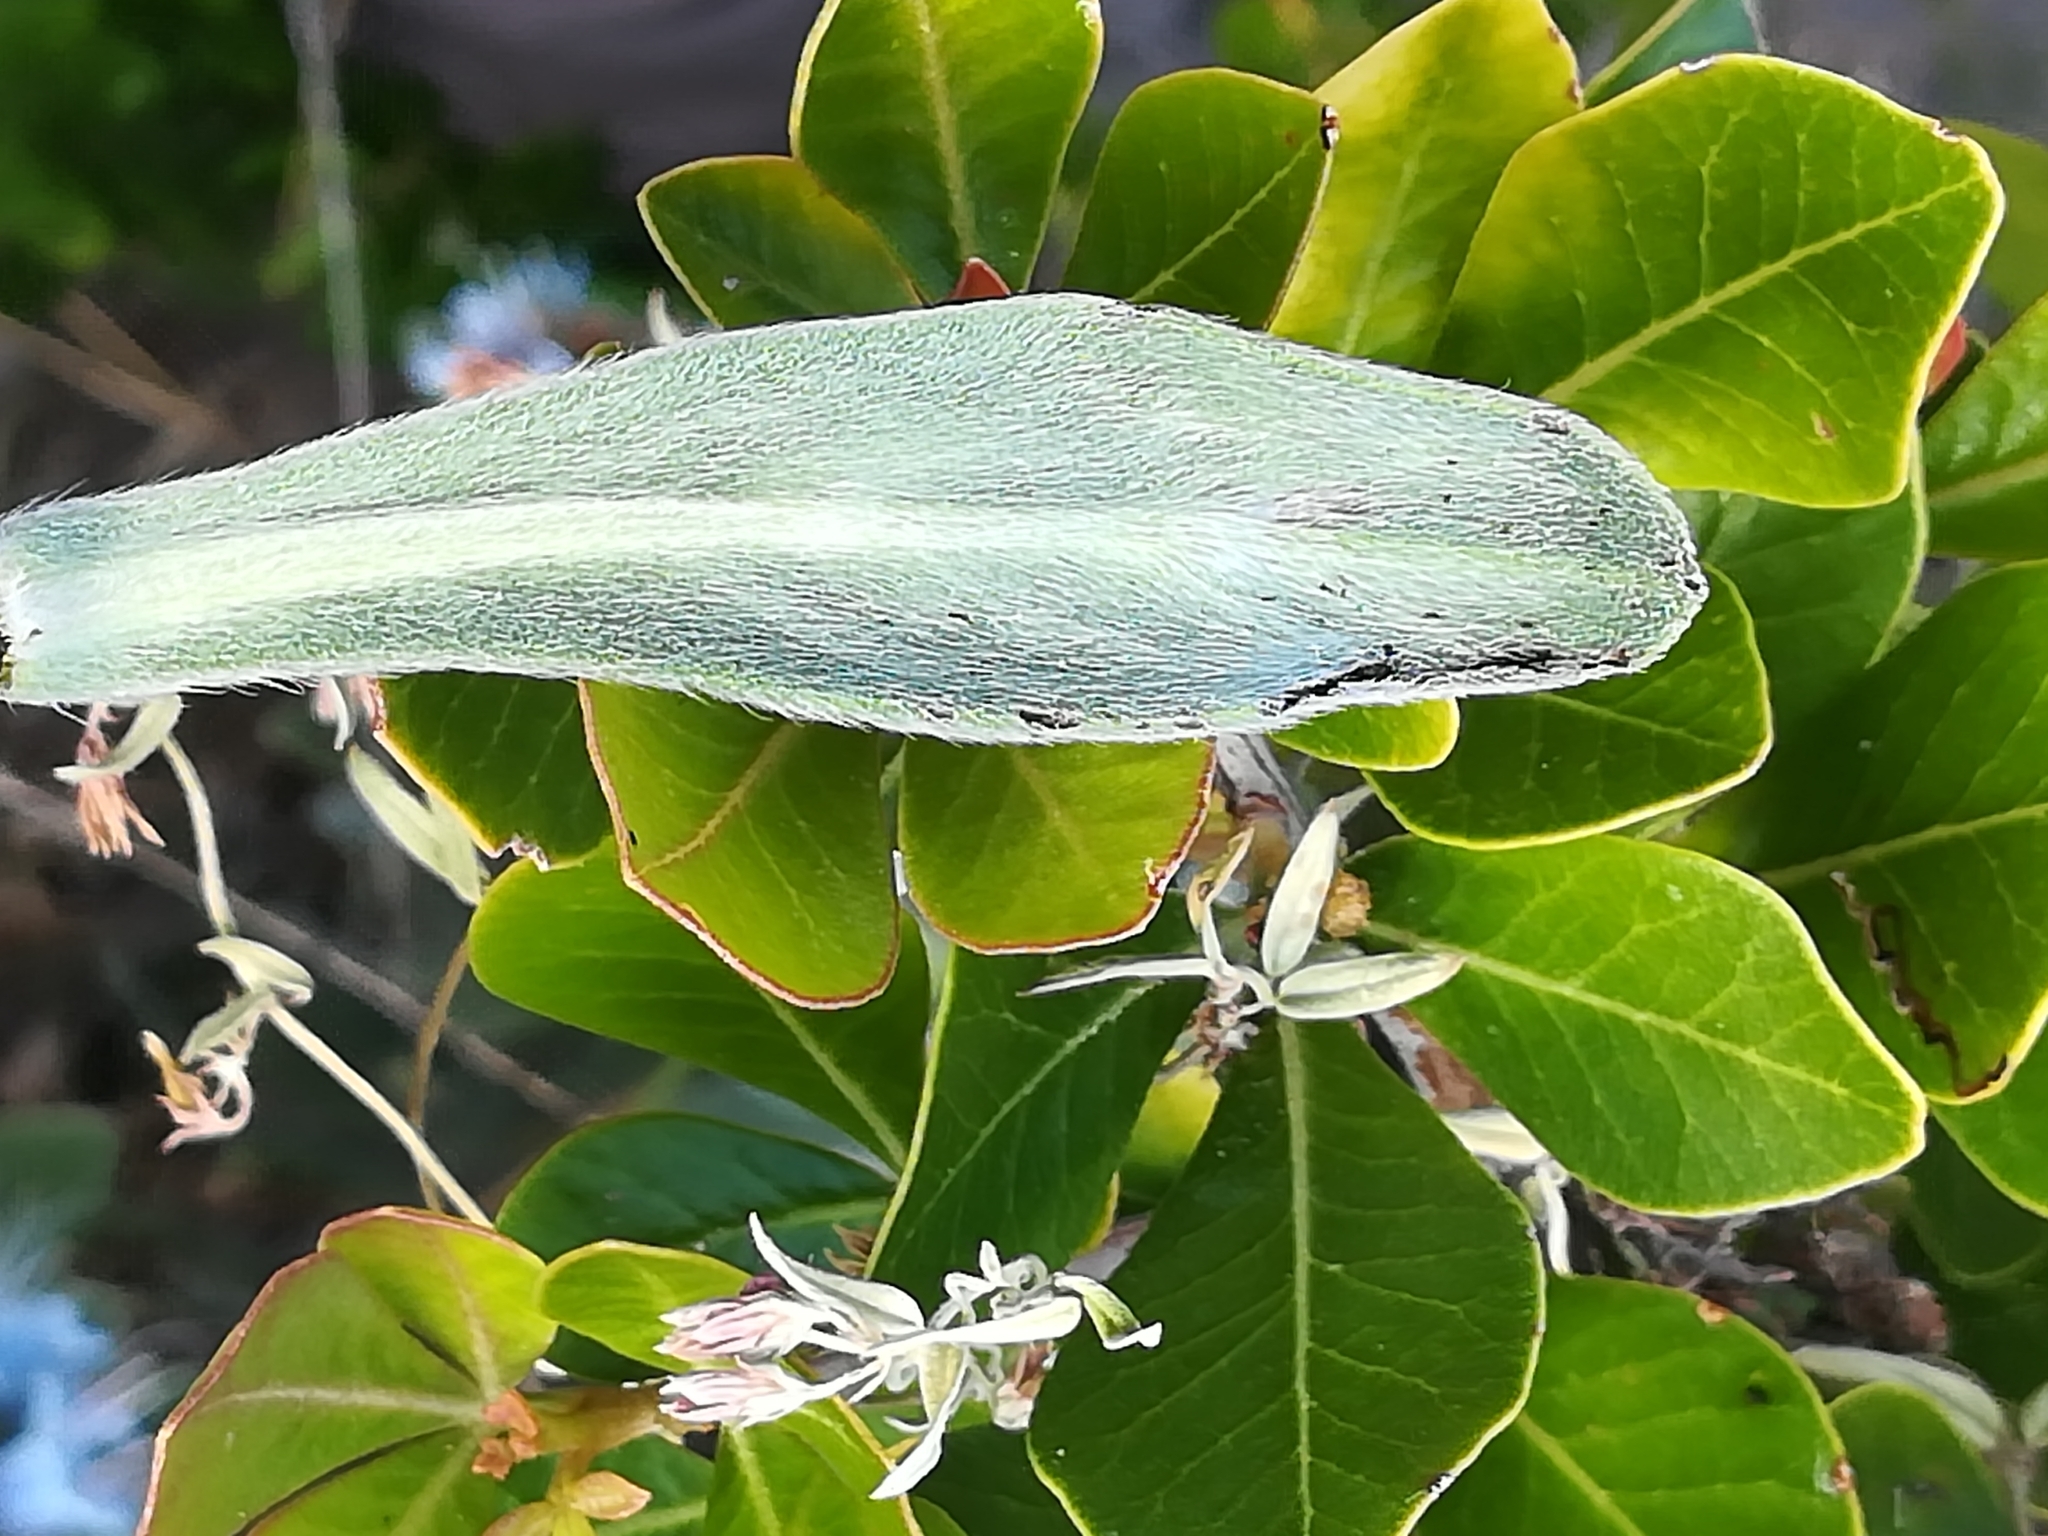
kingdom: Plantae
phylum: Tracheophyta
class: Magnoliopsida
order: Boraginales
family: Boraginaceae
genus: Lobostemon
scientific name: Lobostemon montanus
